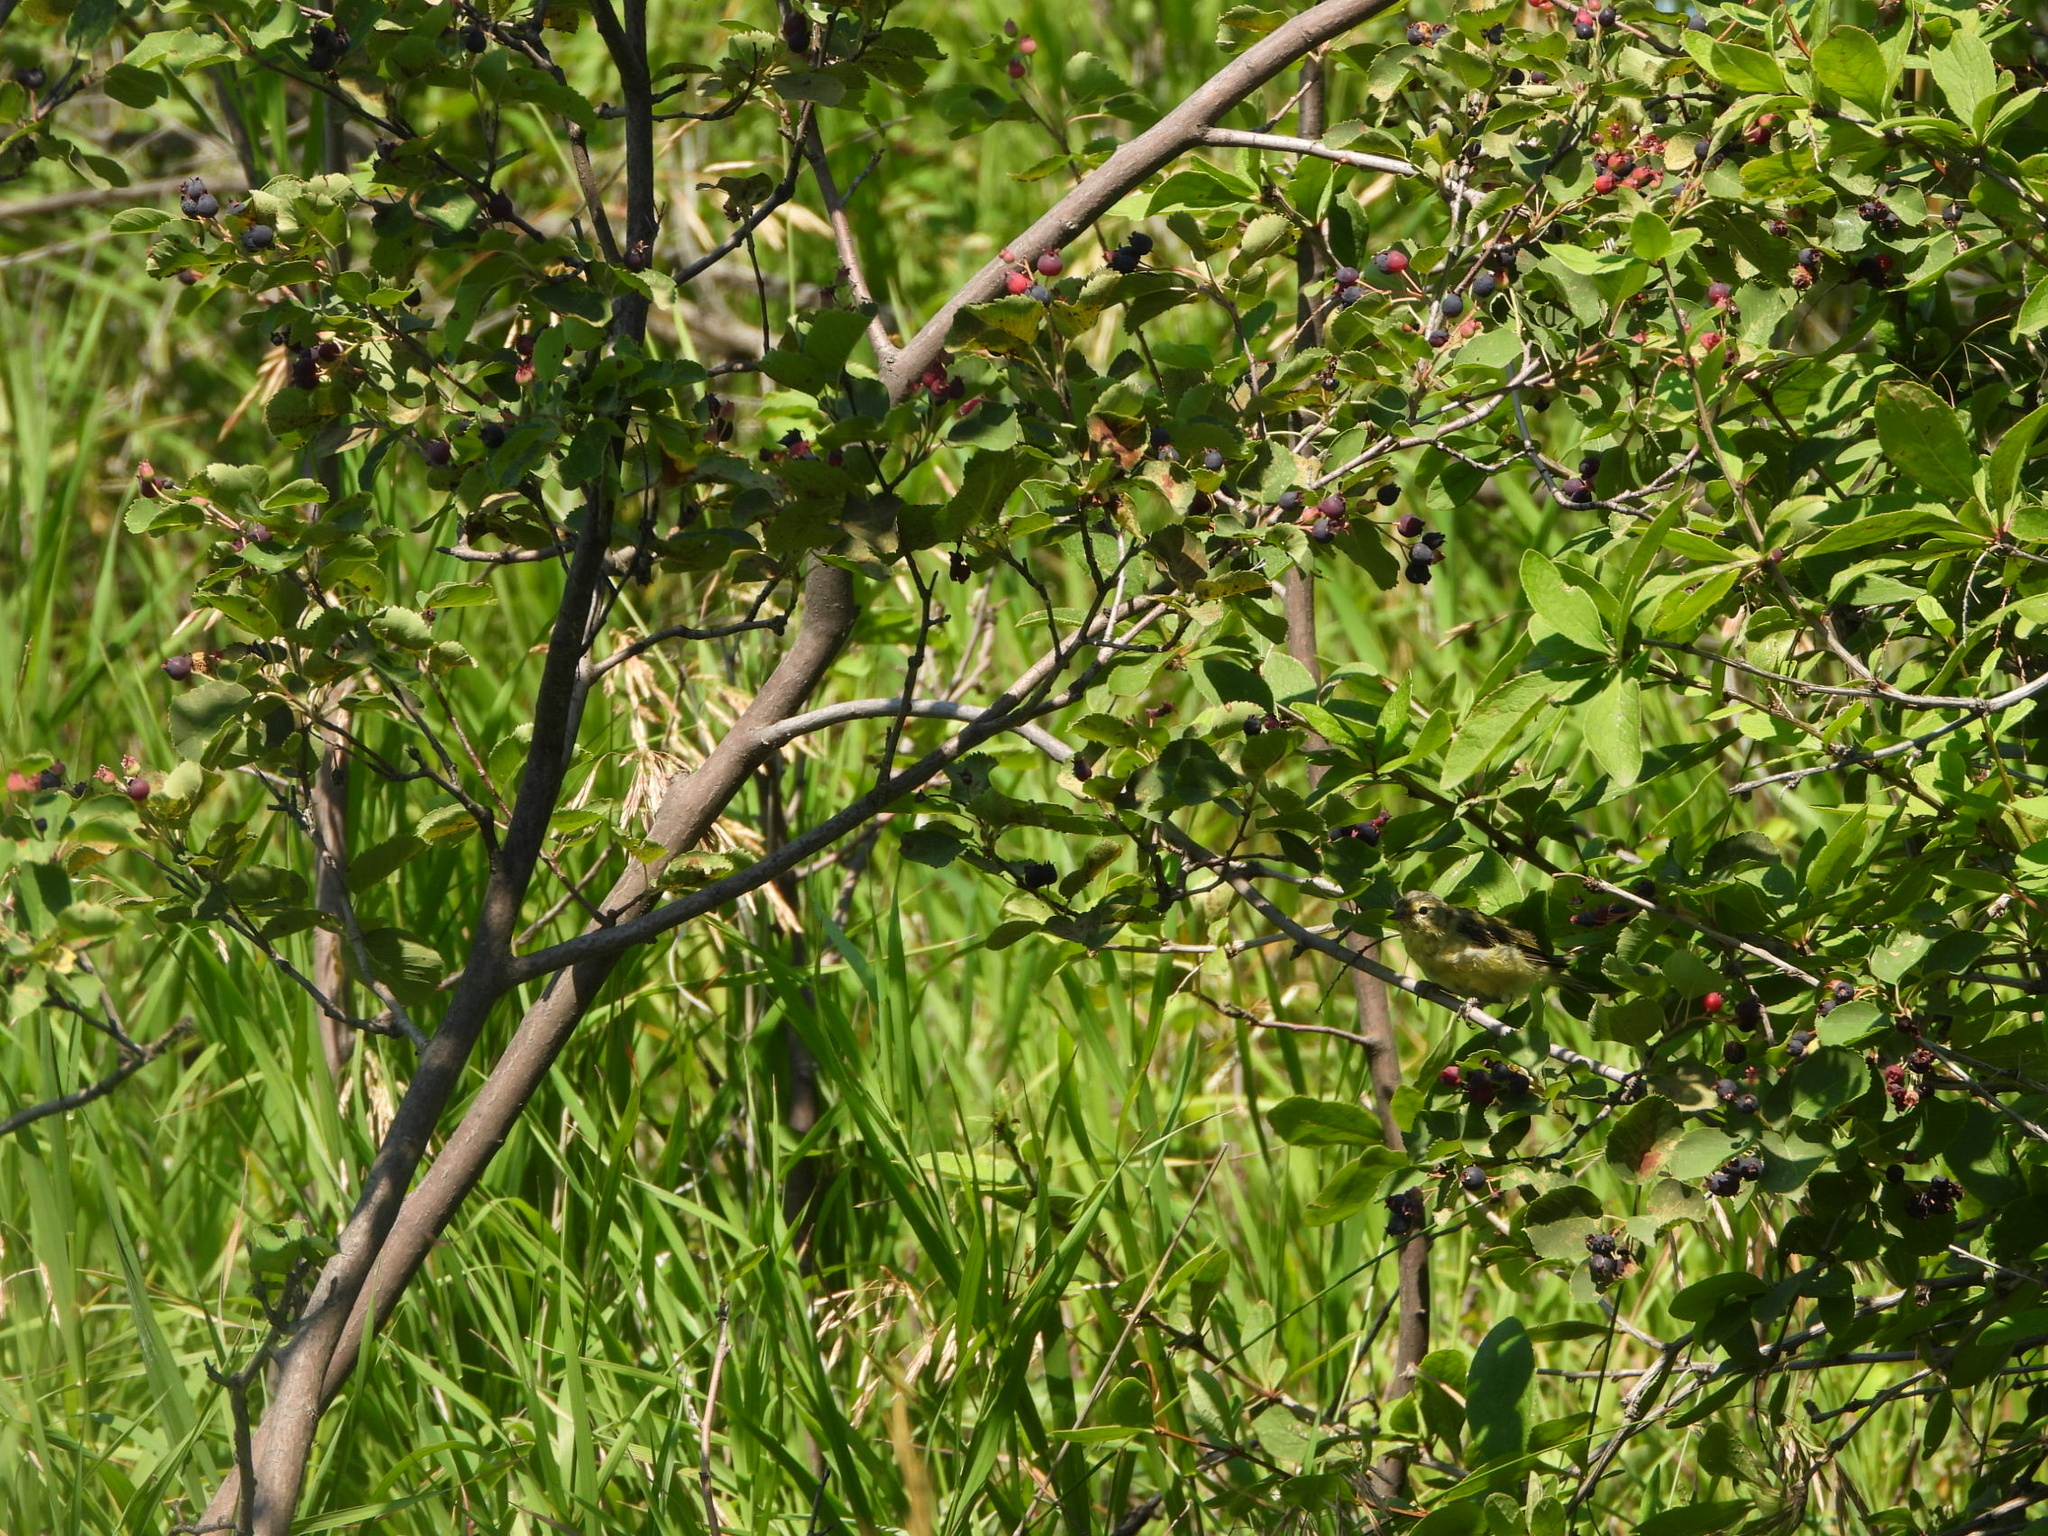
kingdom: Plantae
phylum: Tracheophyta
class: Magnoliopsida
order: Rosales
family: Rosaceae
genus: Amelanchier
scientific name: Amelanchier alnifolia
